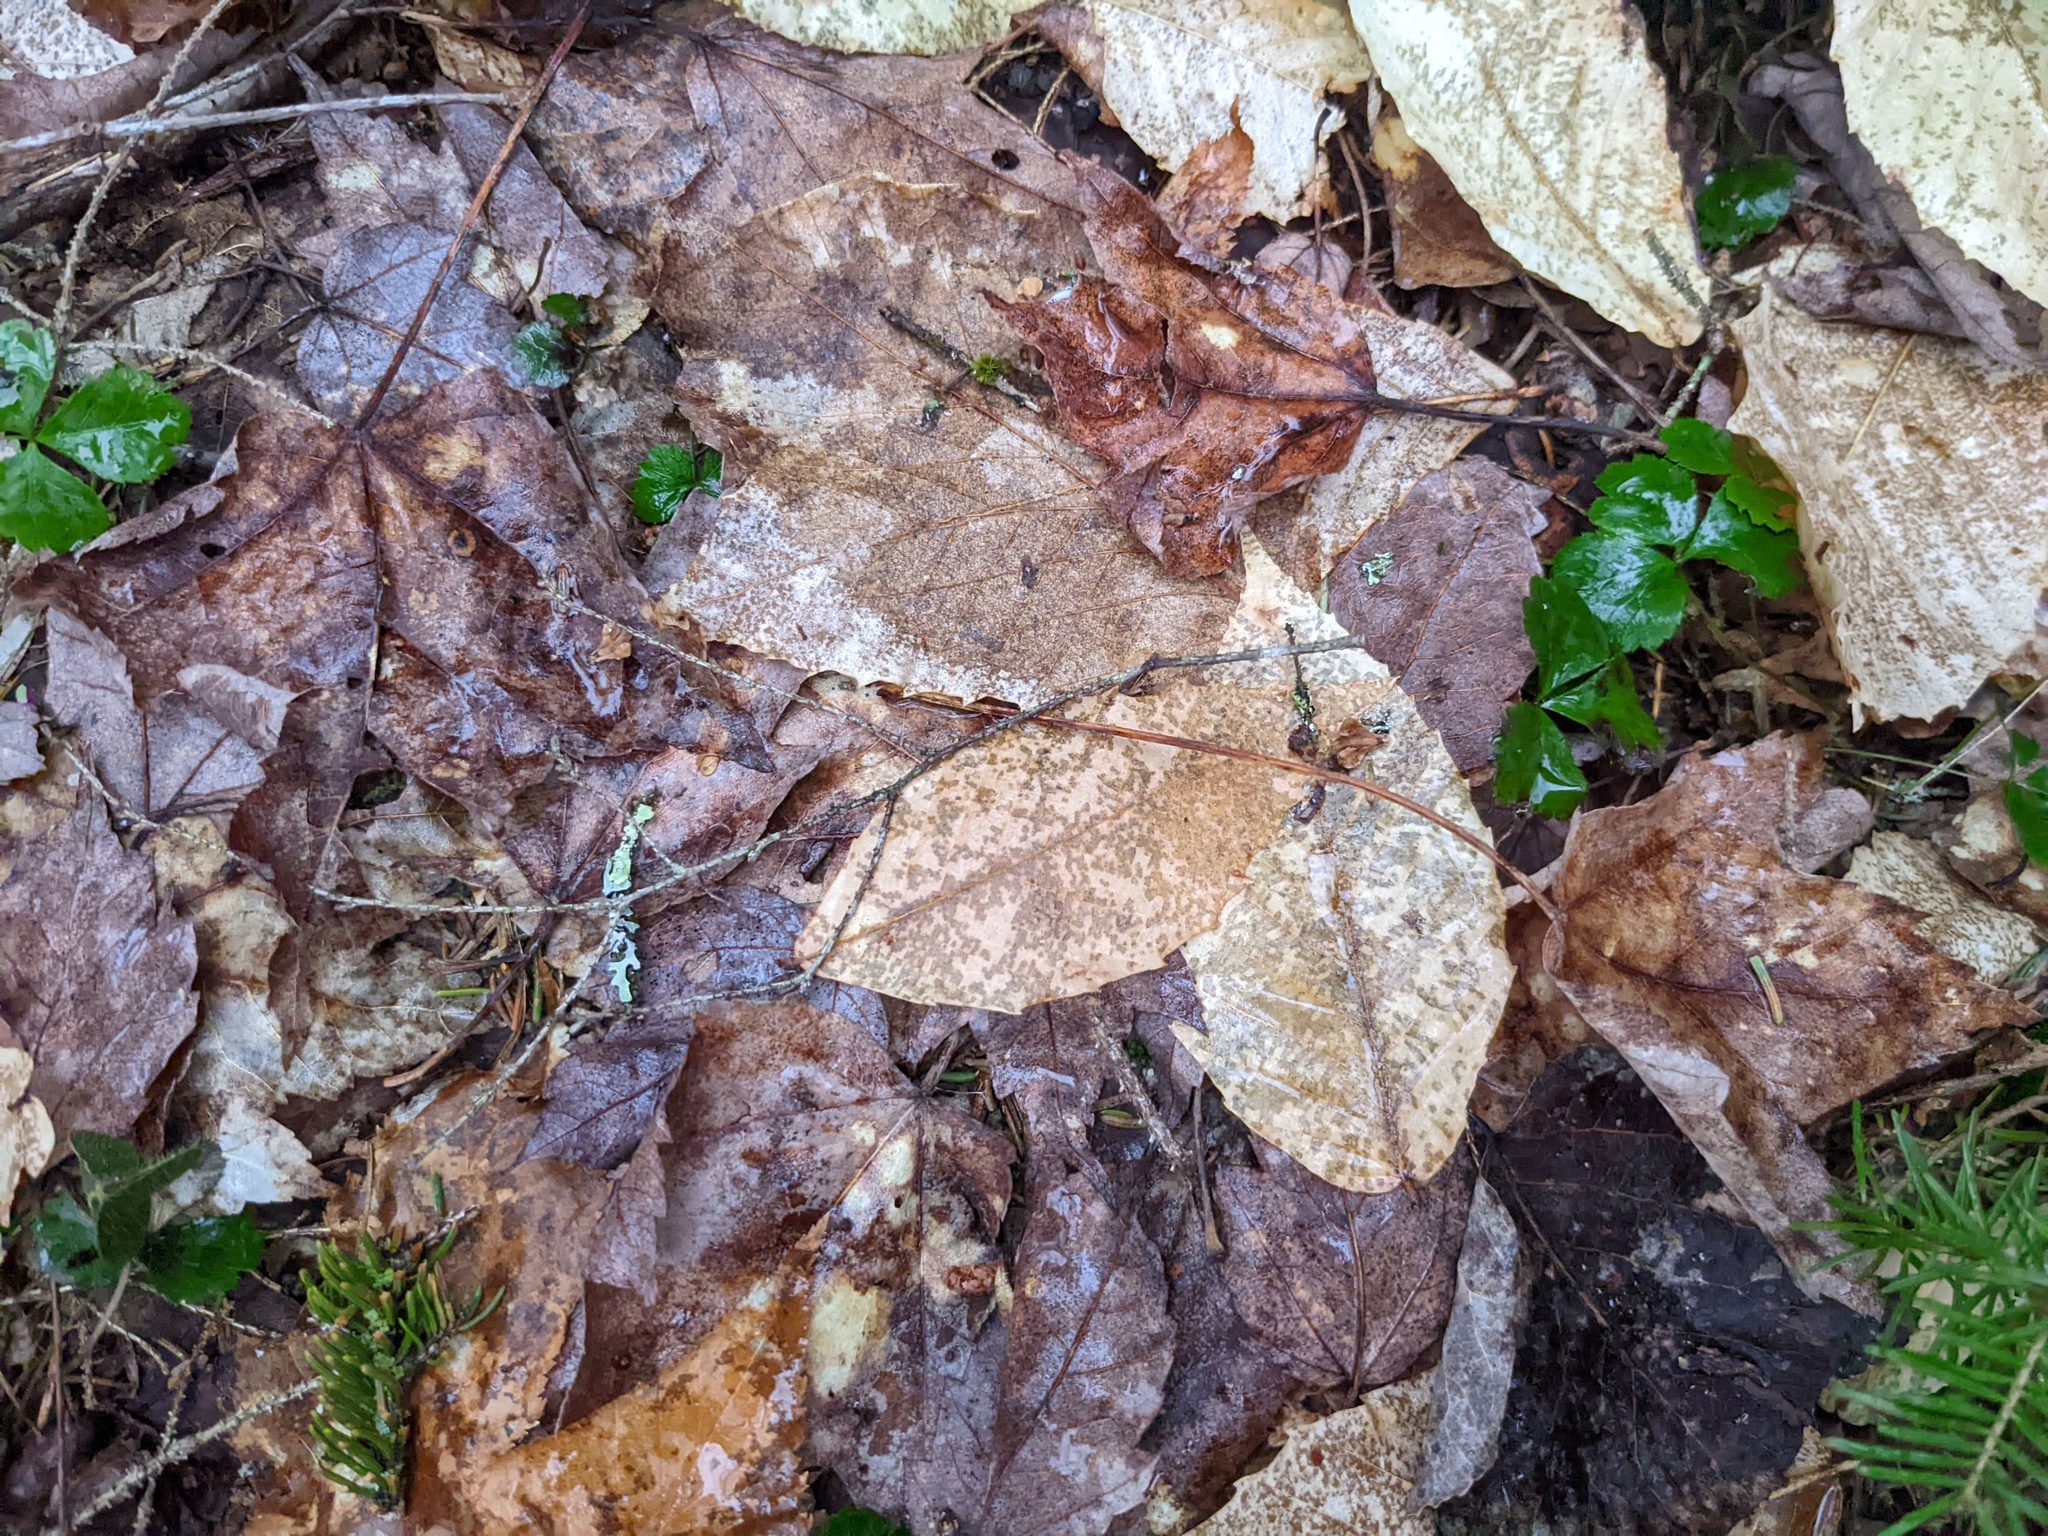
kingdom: Plantae
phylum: Tracheophyta
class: Magnoliopsida
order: Fagales
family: Fagaceae
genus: Fagus
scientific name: Fagus grandifolia
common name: American beech
